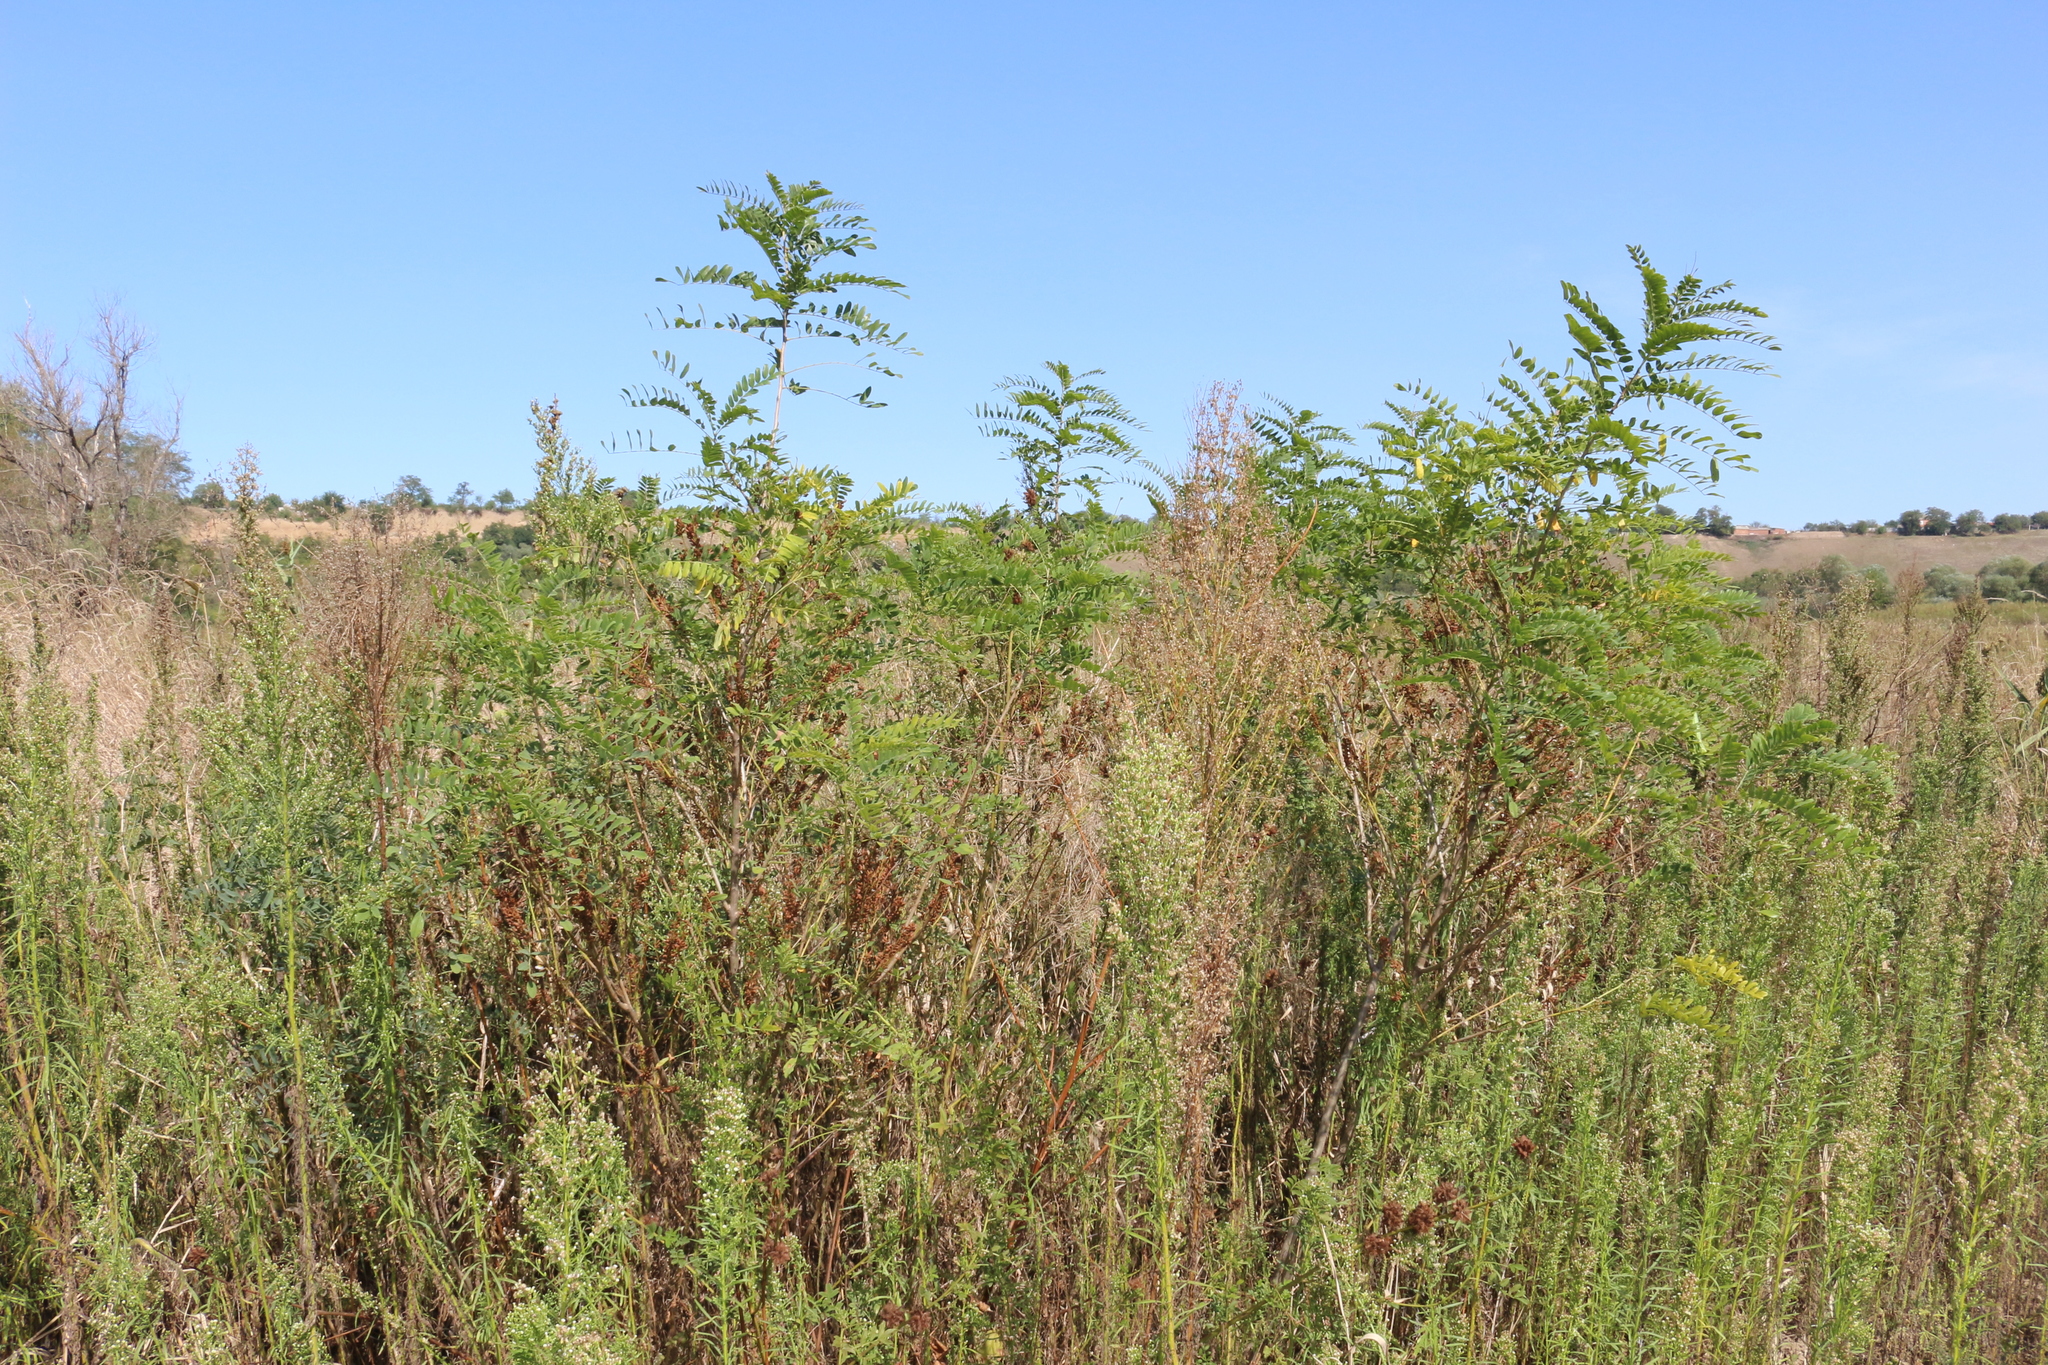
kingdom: Plantae
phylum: Tracheophyta
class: Magnoliopsida
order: Fabales
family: Fabaceae
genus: Amorpha
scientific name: Amorpha fruticosa
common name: False indigo
